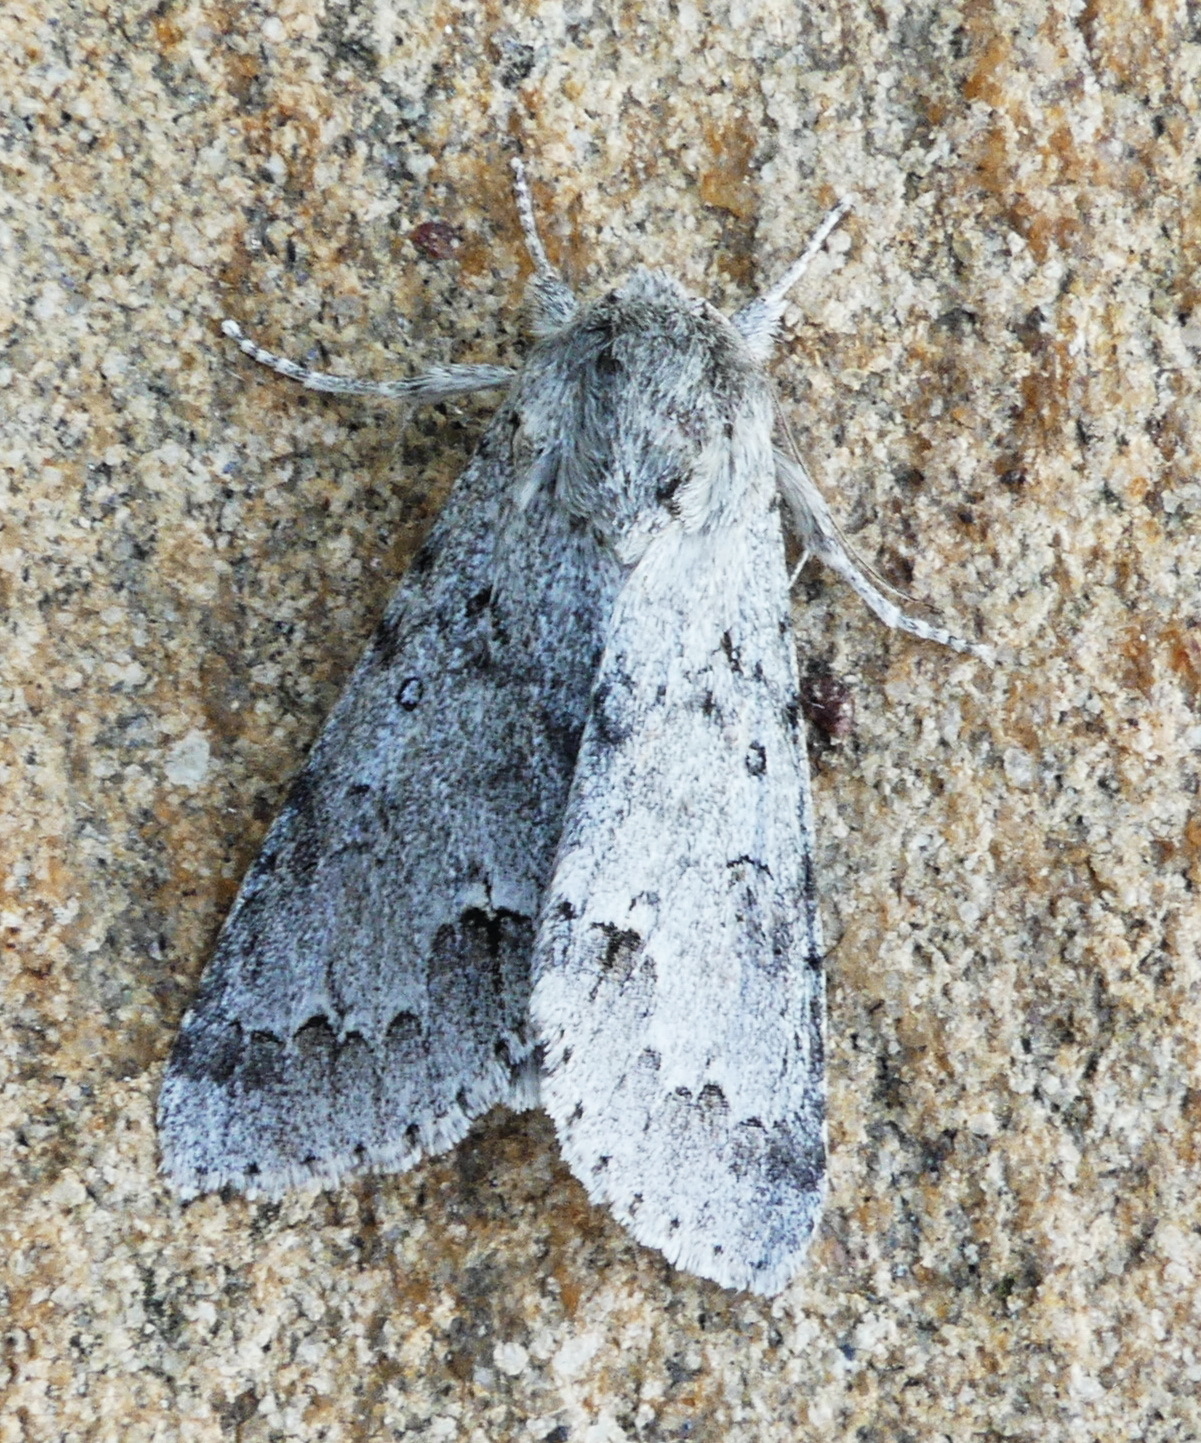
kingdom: Animalia
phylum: Arthropoda
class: Insecta
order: Lepidoptera
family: Noctuidae
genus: Acronicta
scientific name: Acronicta insita
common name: Large gray dagger
